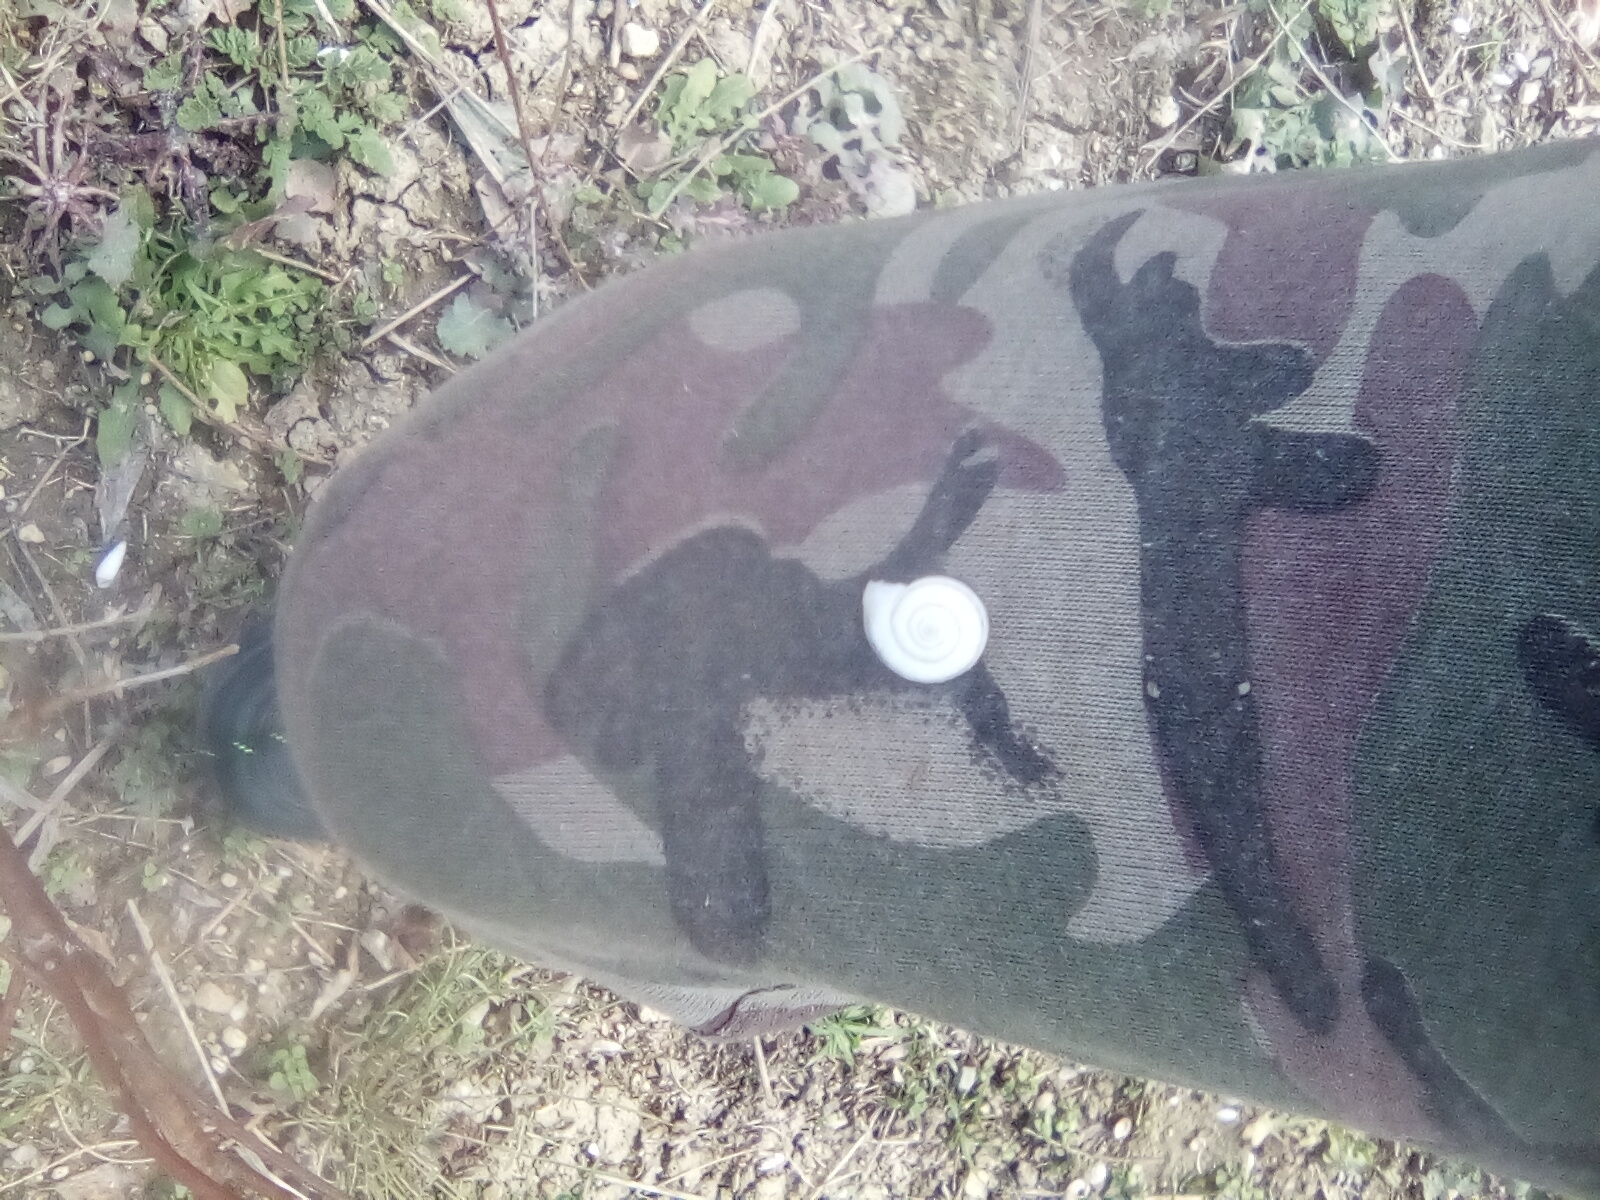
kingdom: Animalia
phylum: Mollusca
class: Gastropoda
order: Stylommatophora
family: Geomitridae
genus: Xeropicta
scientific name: Xeropicta krynickii
